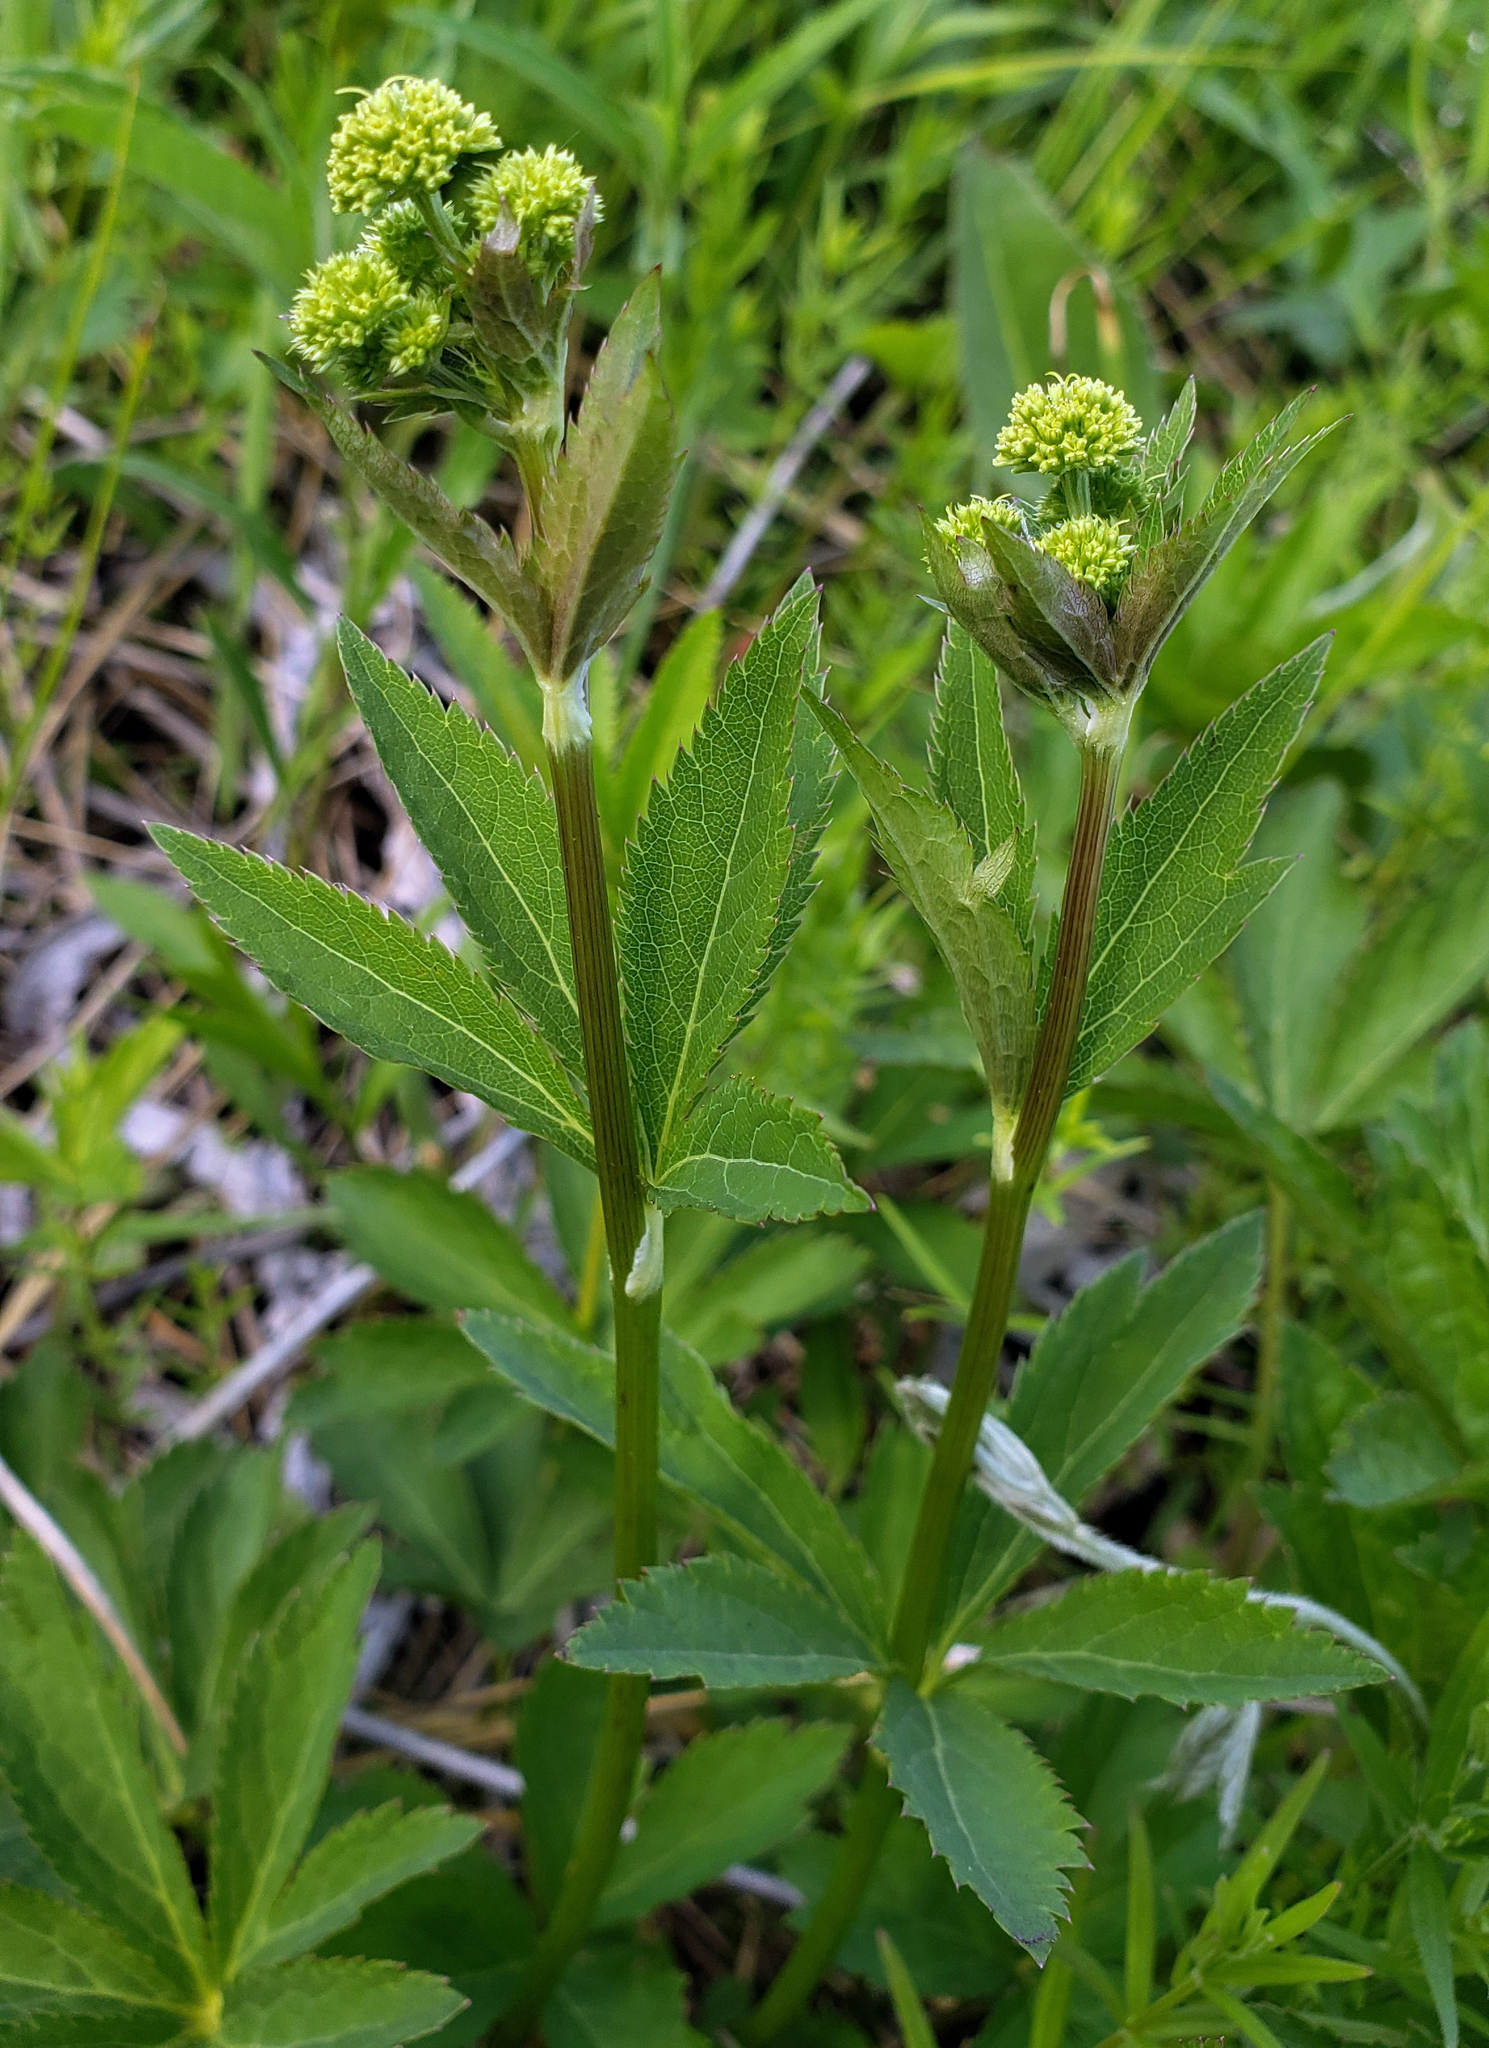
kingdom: Plantae
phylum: Tracheophyta
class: Magnoliopsida
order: Apiales
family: Apiaceae
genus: Sanicula
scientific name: Sanicula marilandica
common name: Black snakeroot
